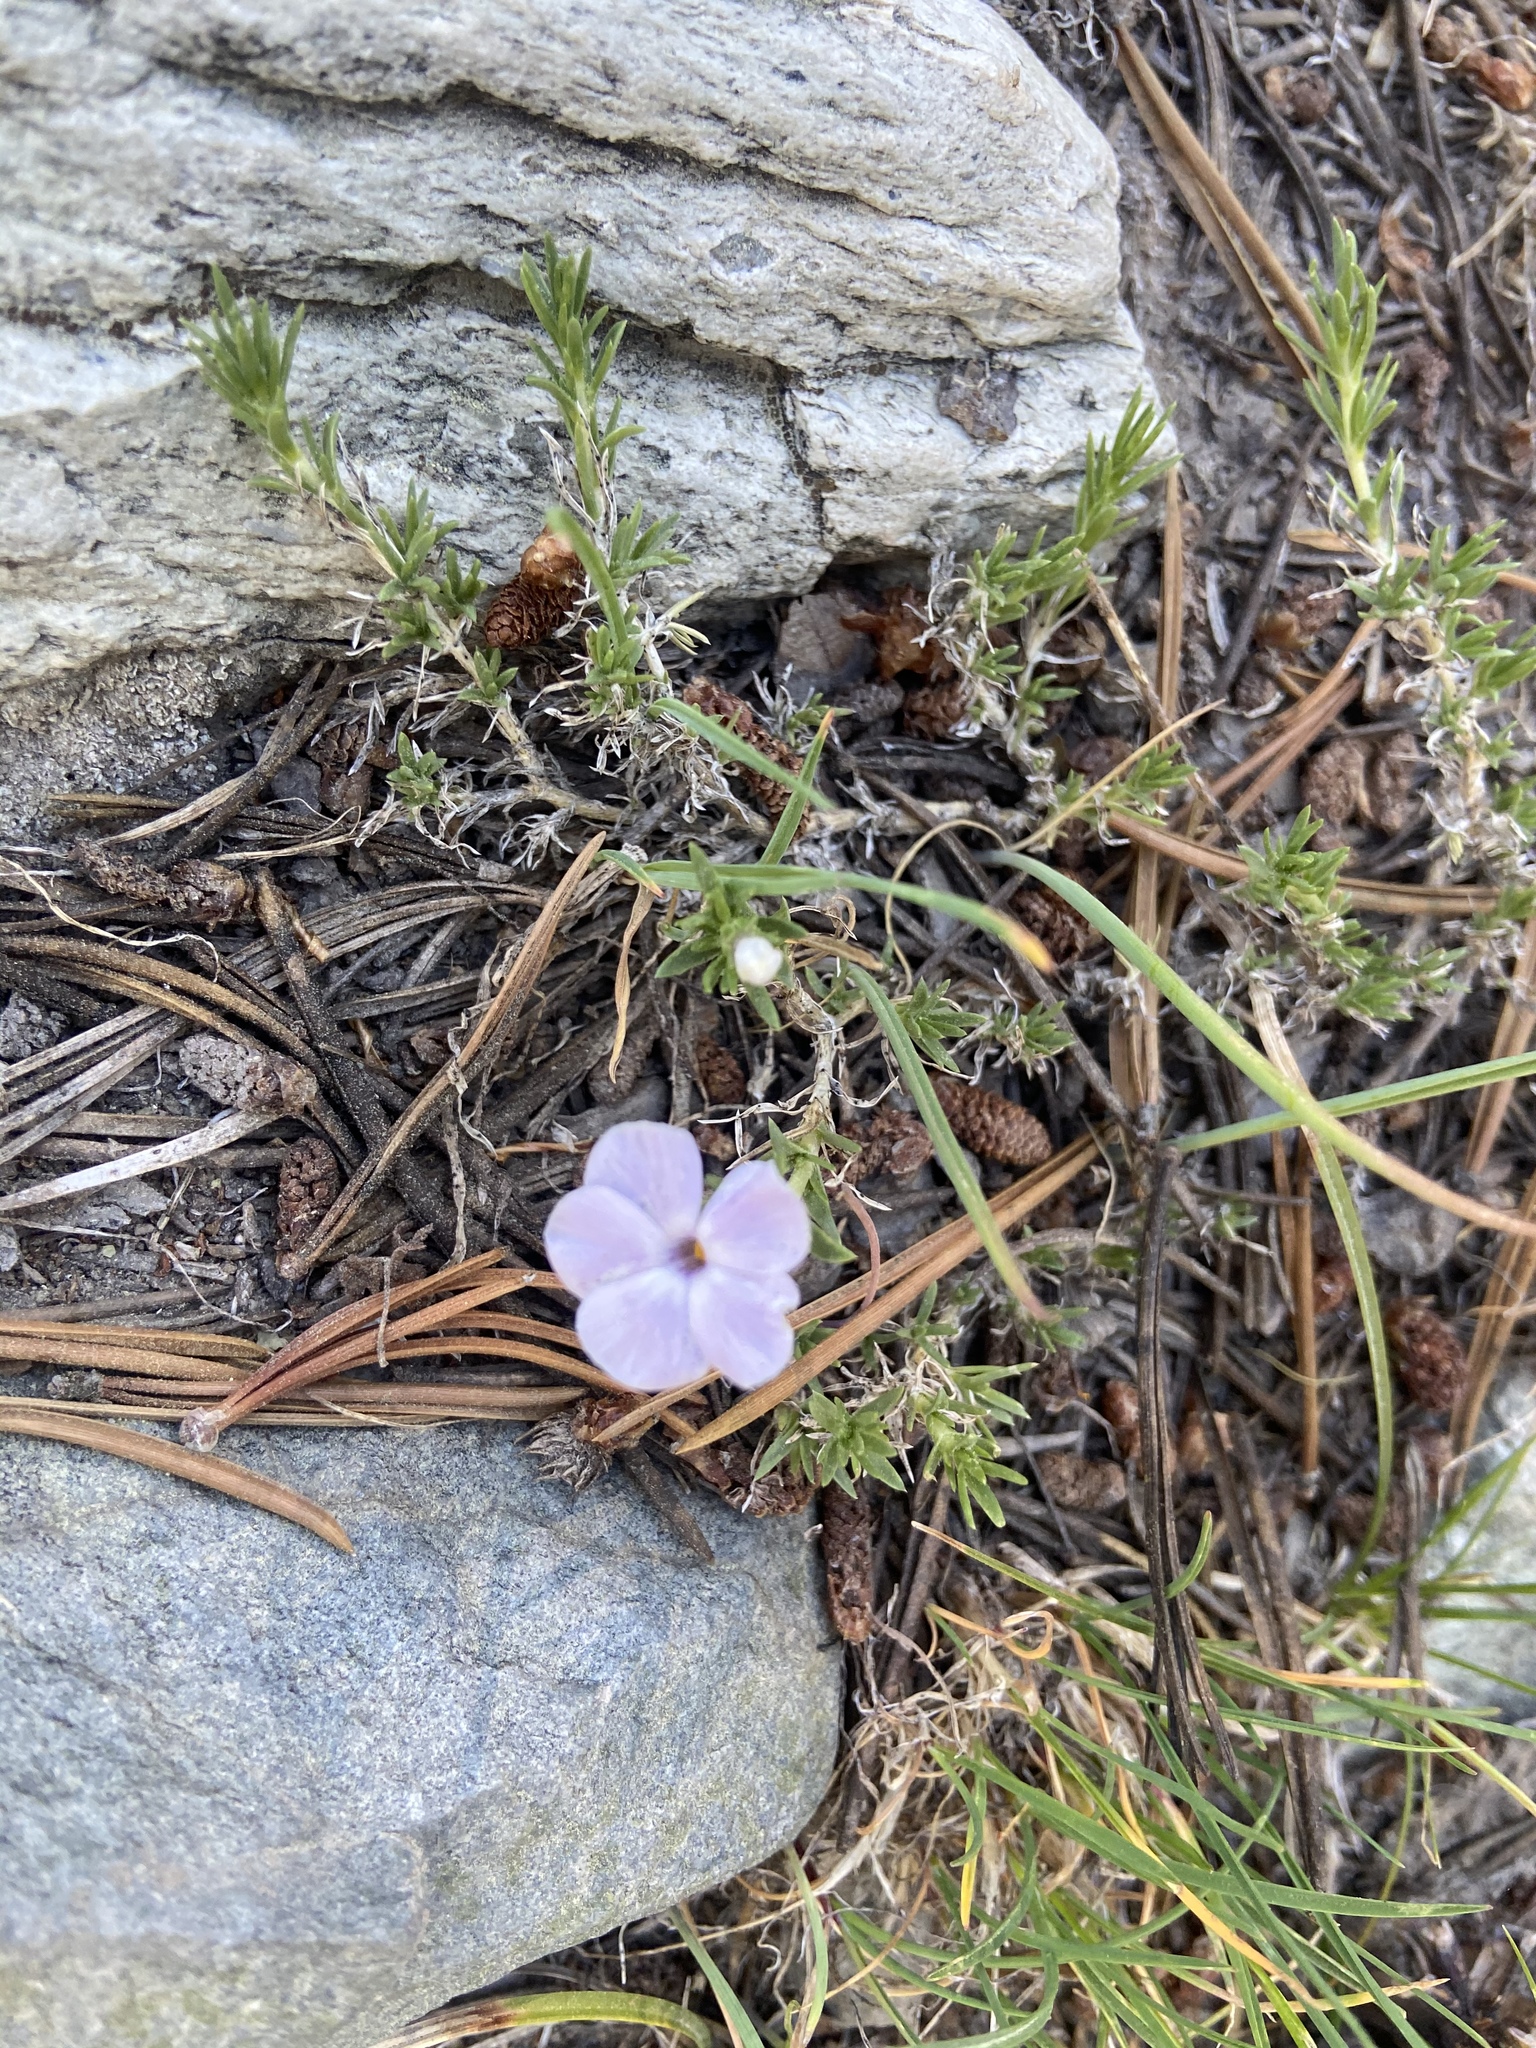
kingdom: Plantae
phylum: Tracheophyta
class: Magnoliopsida
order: Ericales
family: Polemoniaceae
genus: Phlox
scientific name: Phlox diffusa
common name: Mat phlox
